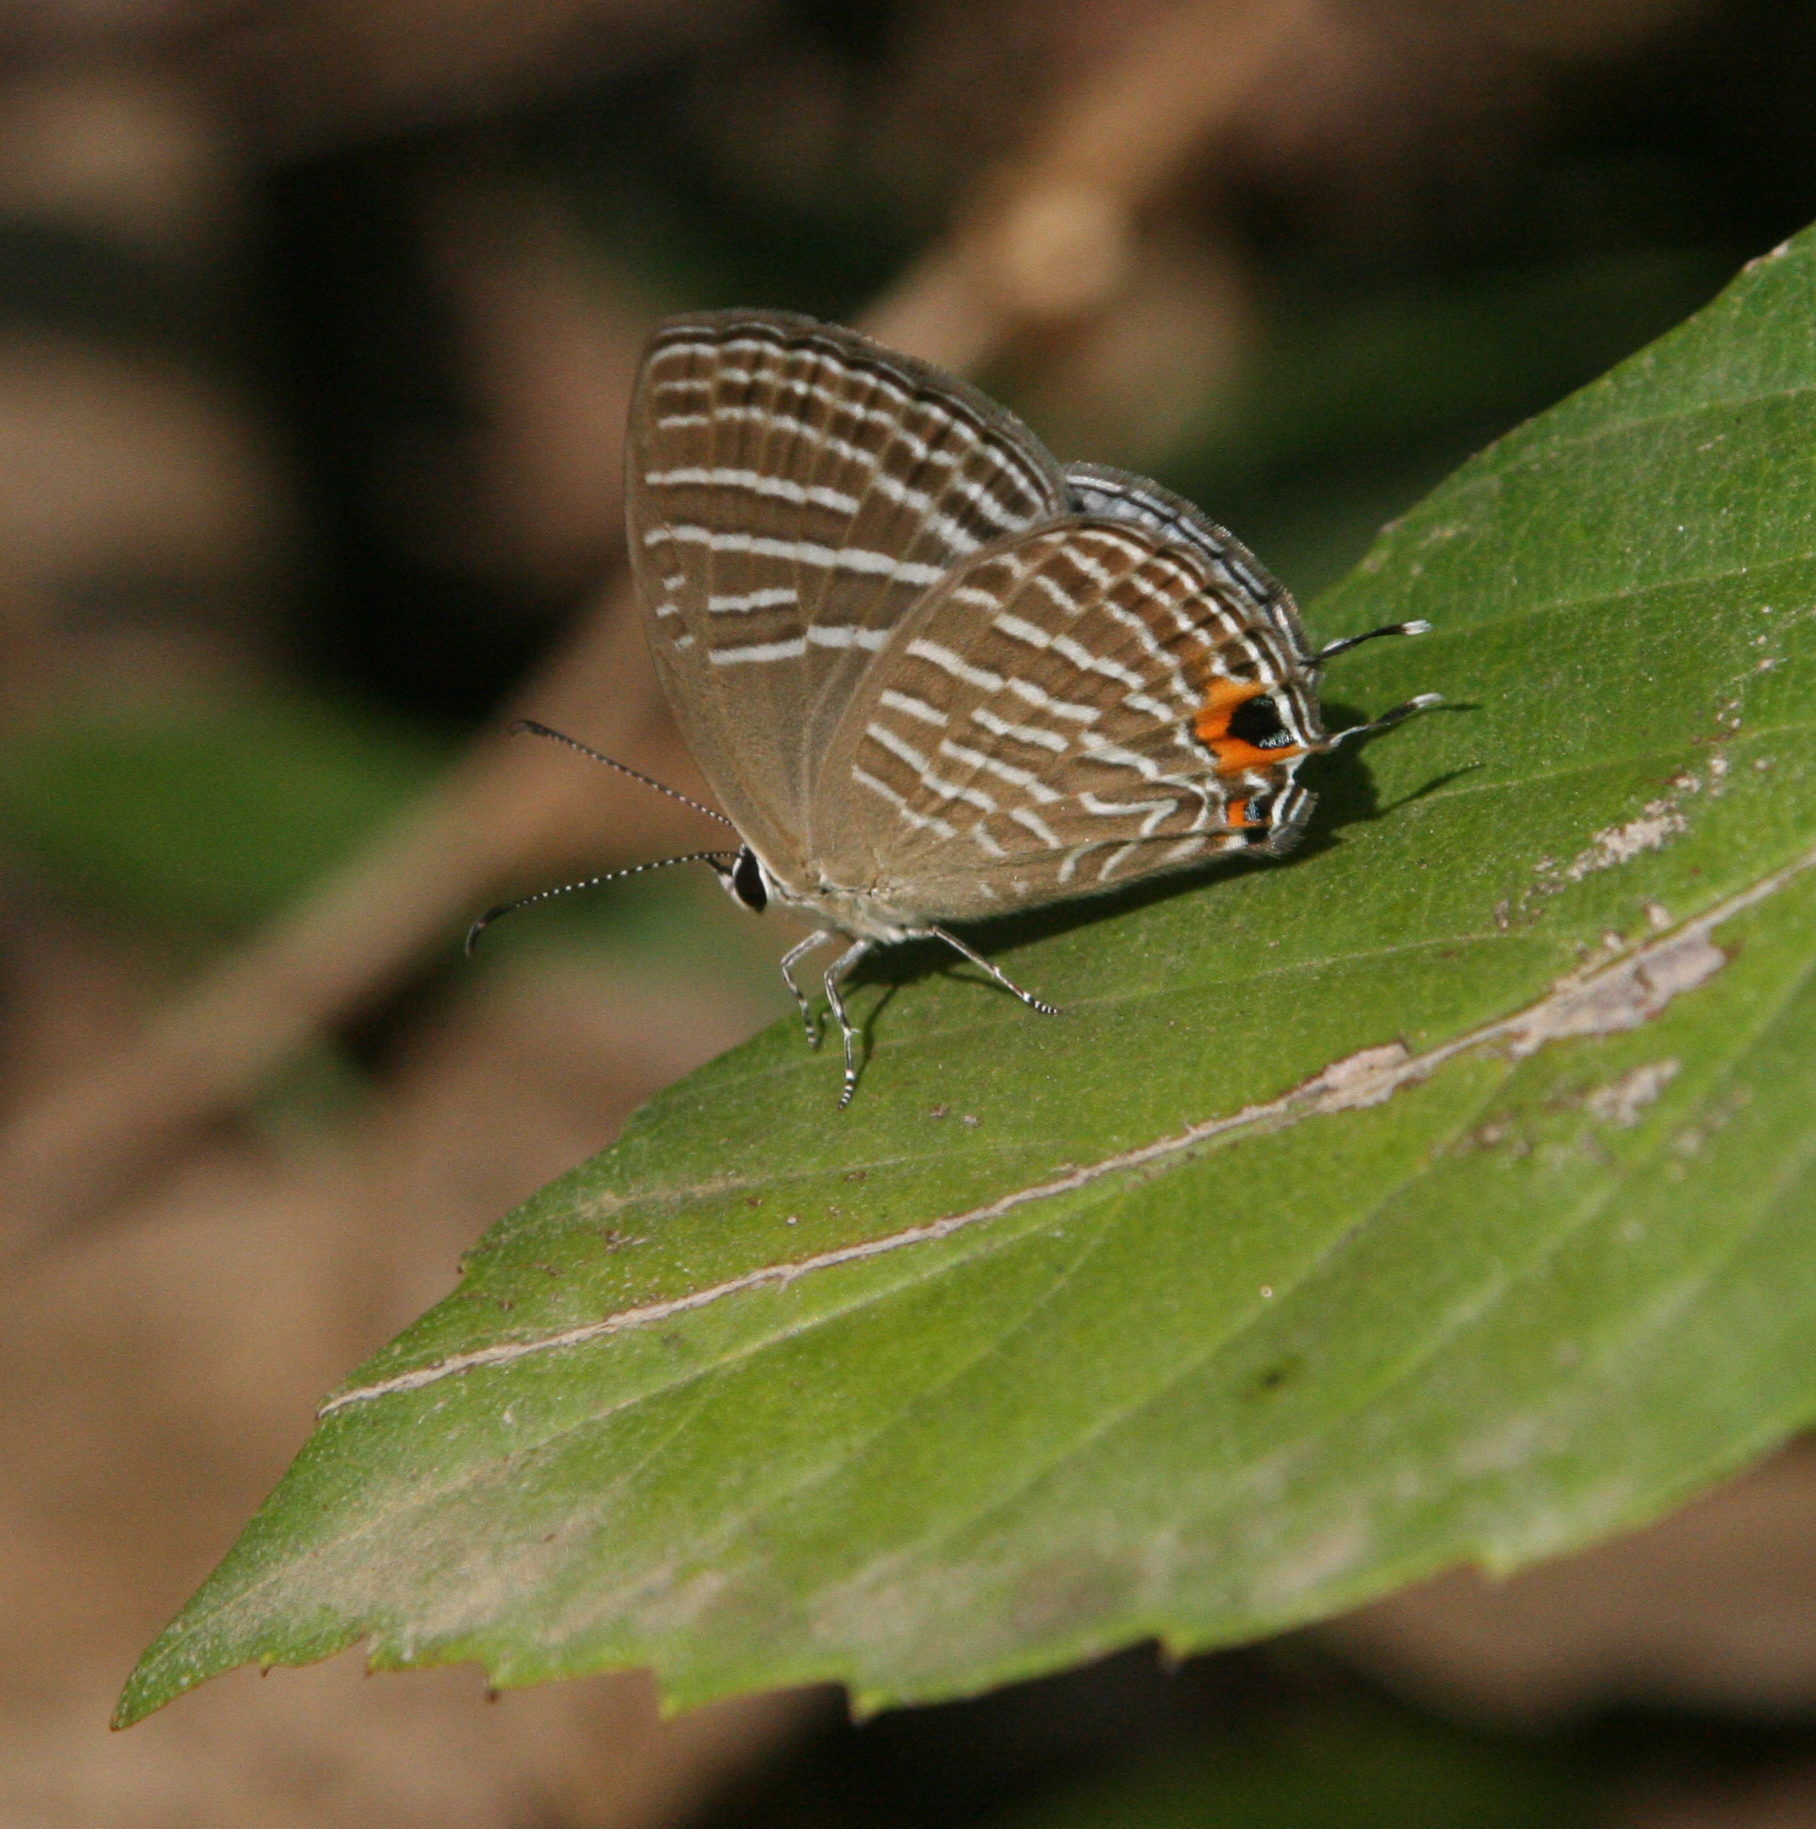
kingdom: Animalia
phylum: Arthropoda
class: Insecta
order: Lepidoptera
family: Lycaenidae
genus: Jamides
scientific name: Jamides celeno
